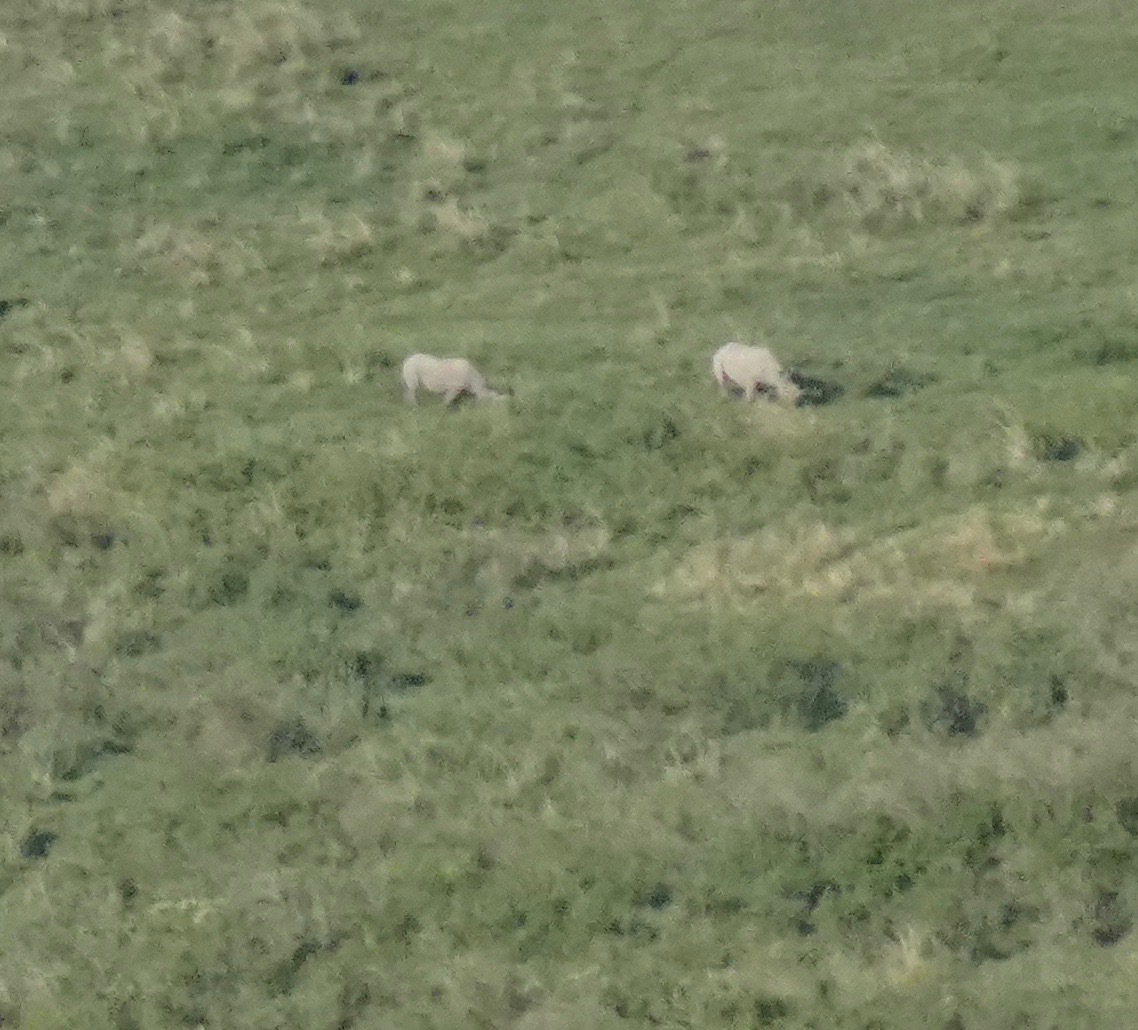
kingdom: Animalia
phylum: Chordata
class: Mammalia
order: Perissodactyla
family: Rhinocerotidae
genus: Diceros
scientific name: Diceros bicornis
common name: Black rhinoceros
